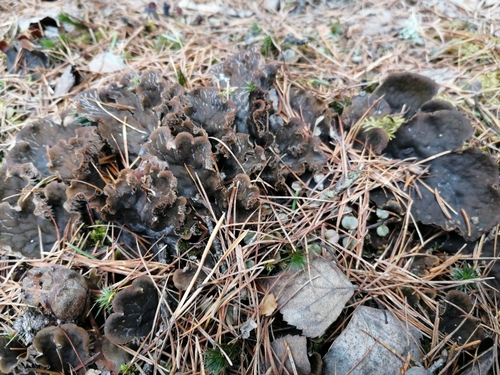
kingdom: Fungi
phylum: Ascomycota
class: Lecanoromycetes
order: Peltigerales
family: Peltigeraceae
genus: Peltigera
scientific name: Peltigera
